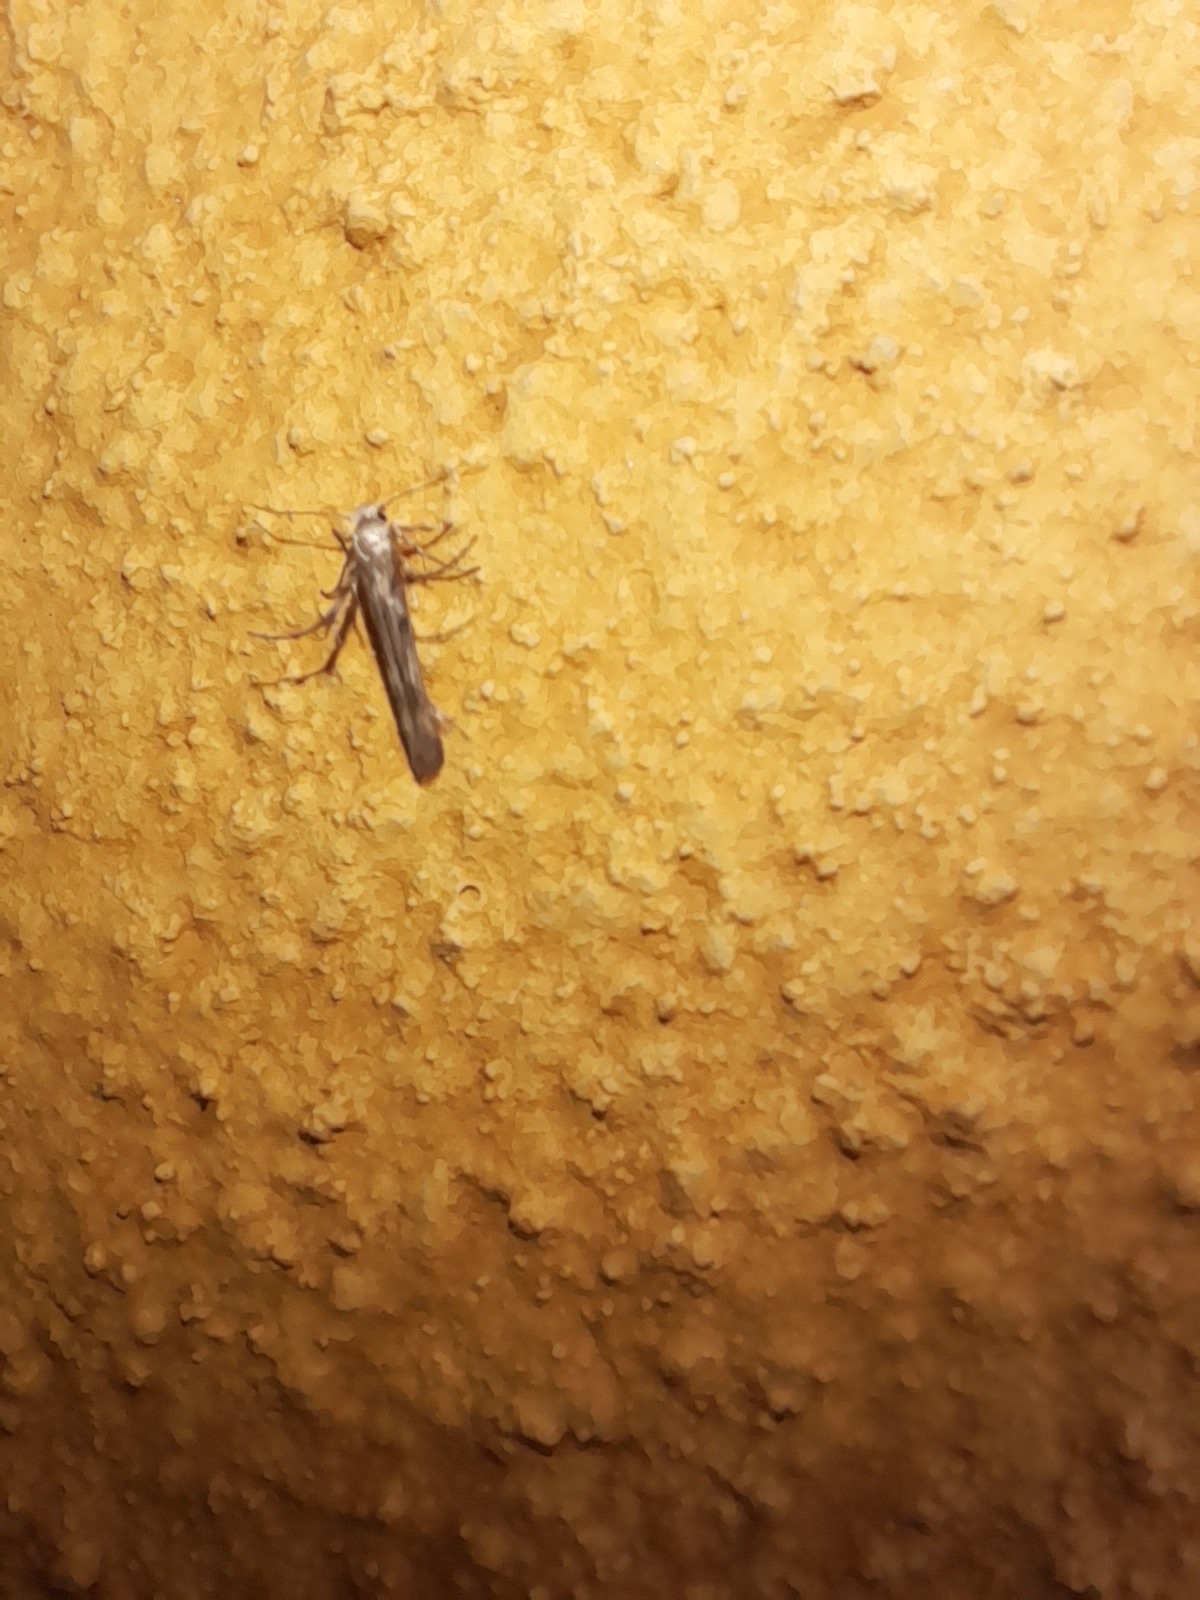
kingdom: Animalia
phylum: Arthropoda
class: Insecta
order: Lepidoptera
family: Gelechiidae
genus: Palumbina
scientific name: Palumbina guerinii
